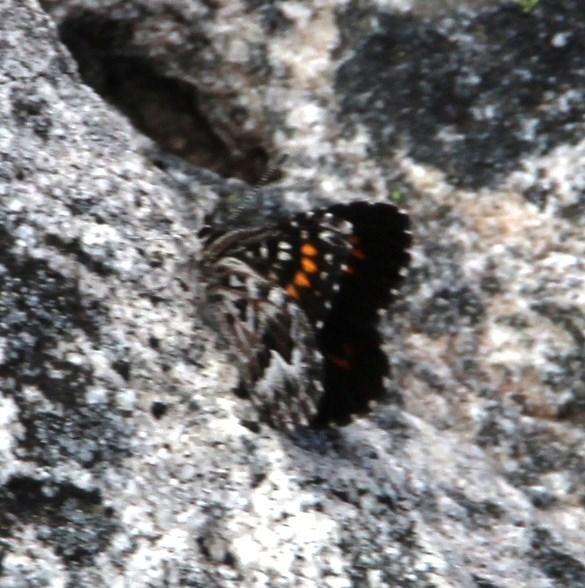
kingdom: Animalia
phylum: Arthropoda
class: Insecta
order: Lepidoptera
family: Lycaenidae
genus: Durbaniopsis
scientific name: Durbaniopsis saga
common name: Boland rocksitter
